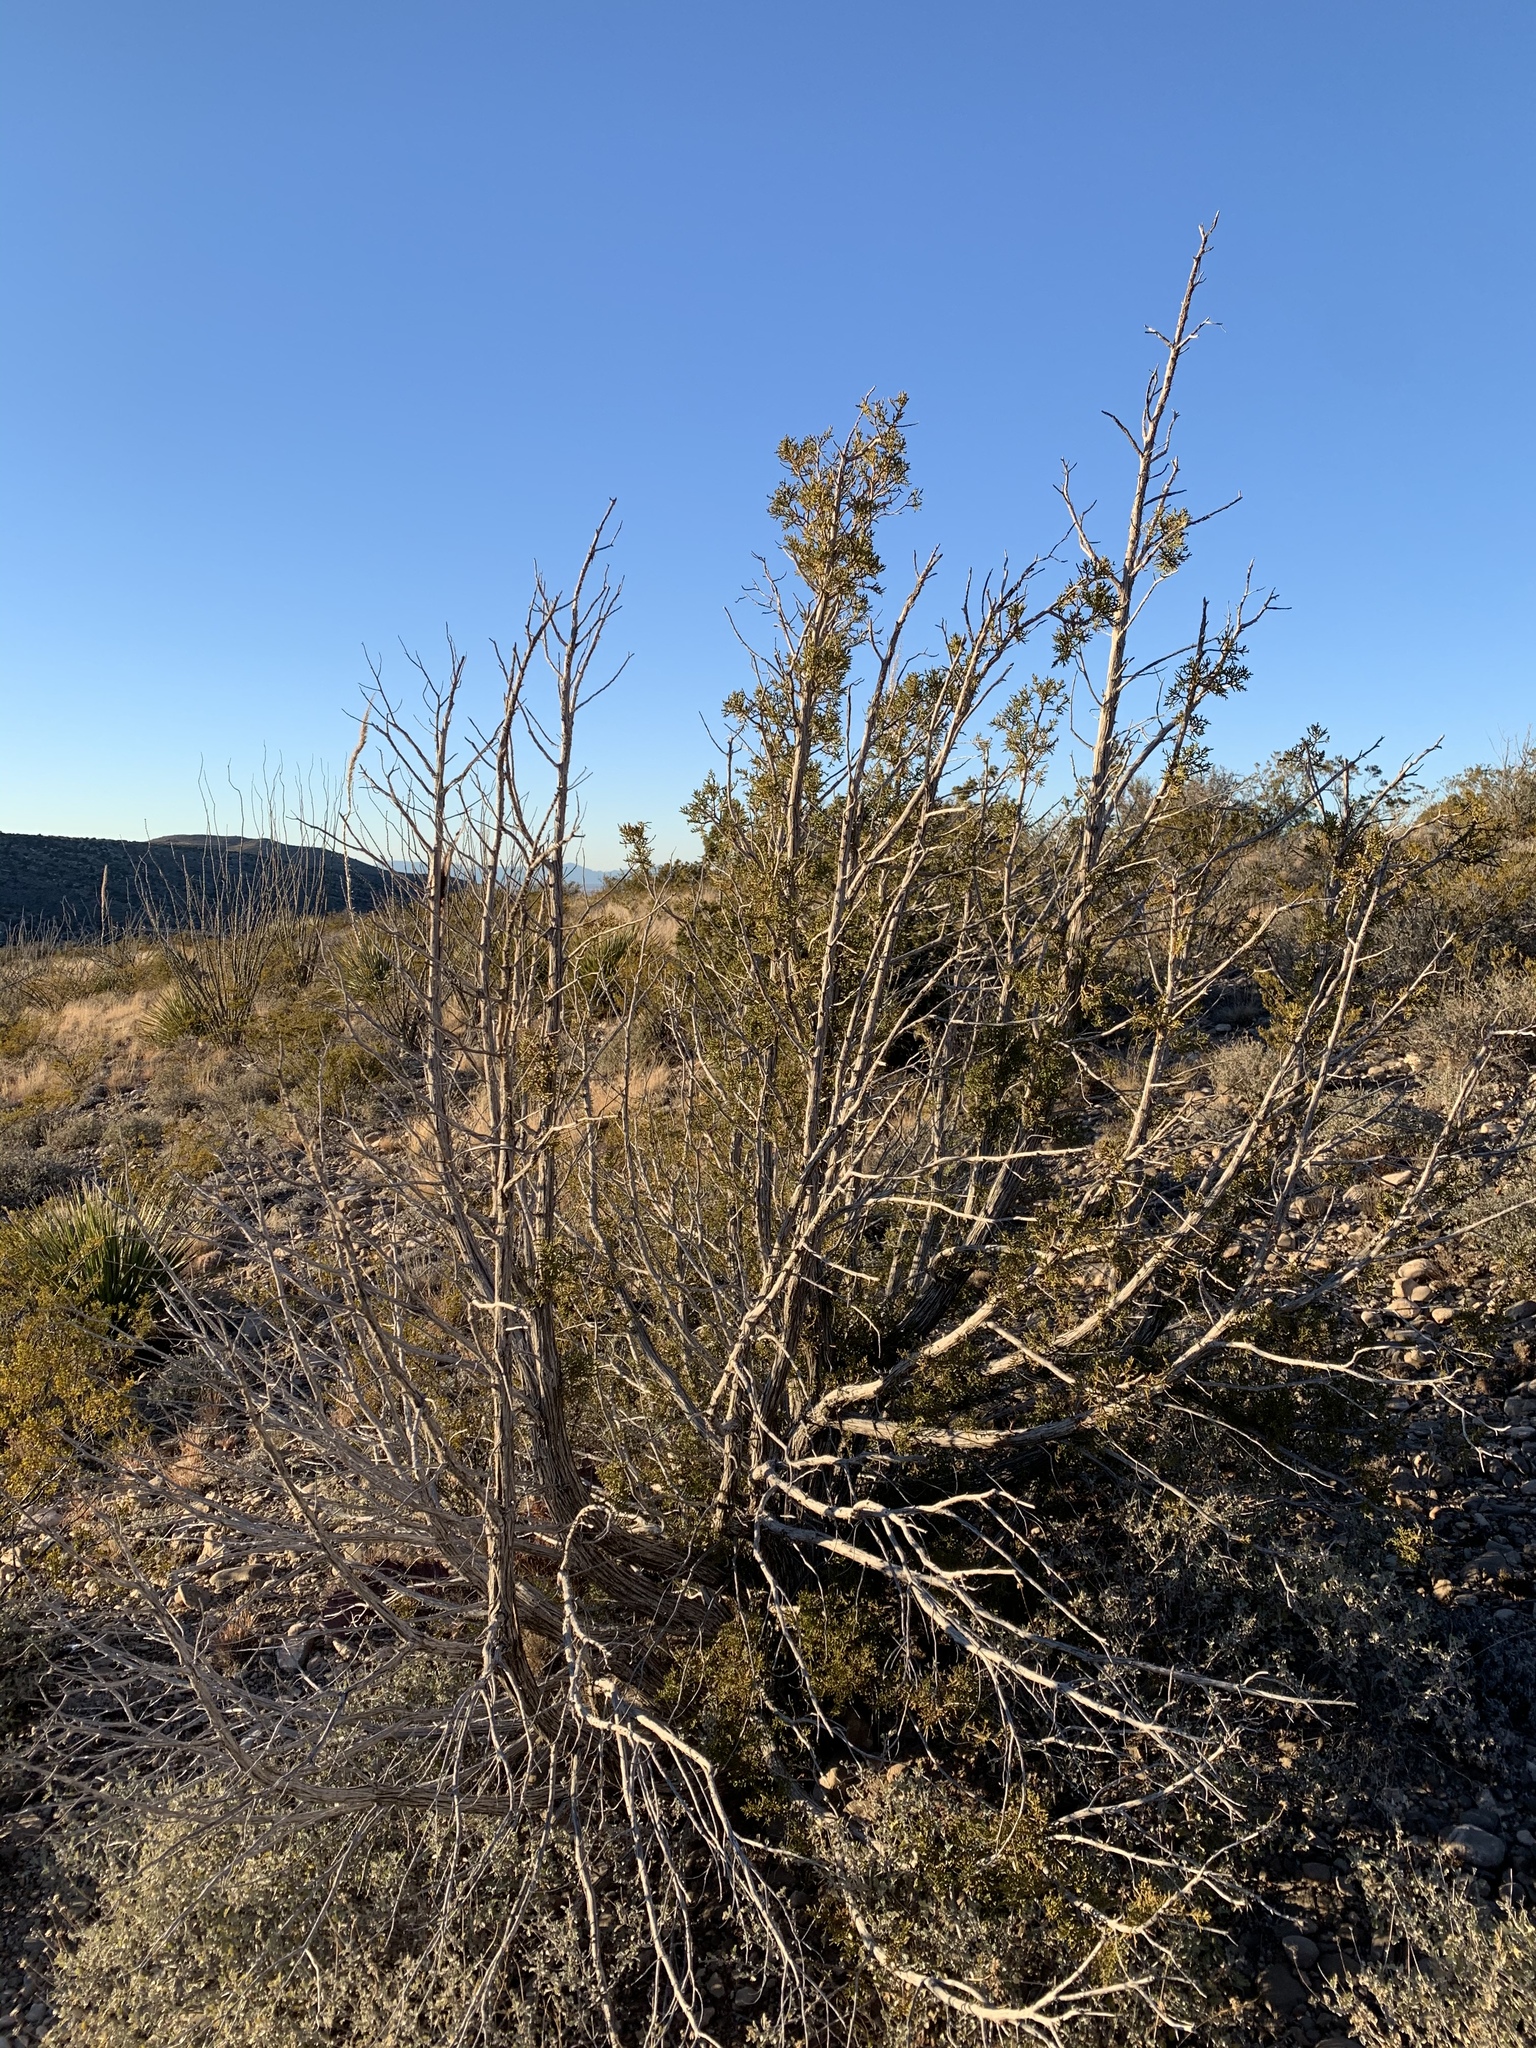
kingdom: Plantae
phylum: Tracheophyta
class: Pinopsida
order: Pinales
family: Cupressaceae
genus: Juniperus
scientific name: Juniperus monosperma
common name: One-seed juniper
